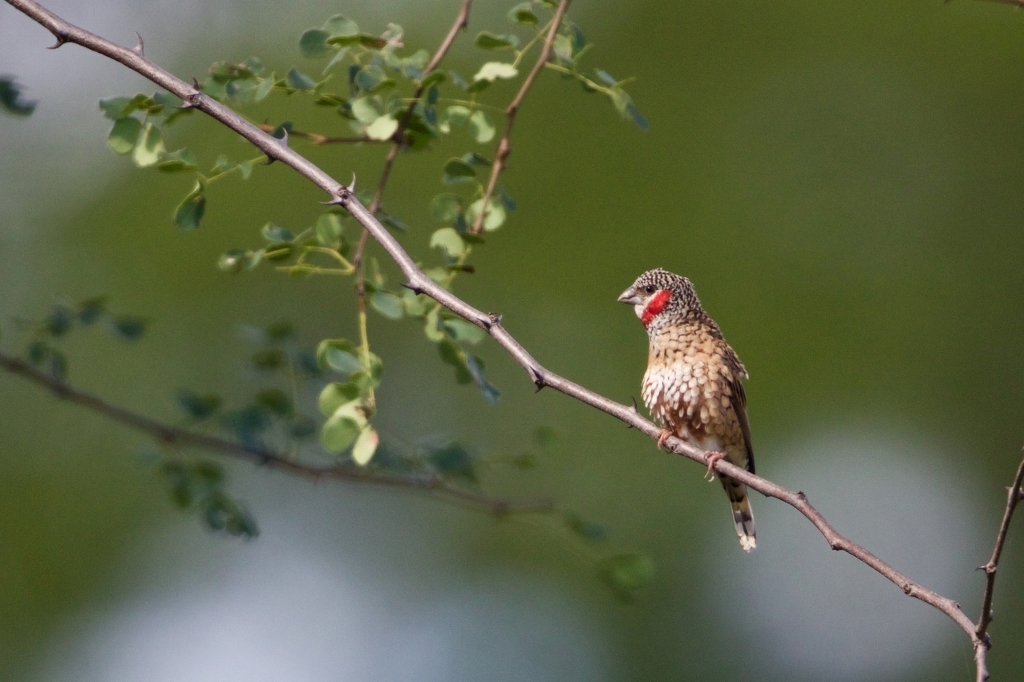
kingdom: Animalia
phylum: Chordata
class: Aves
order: Passeriformes
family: Estrildidae
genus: Amadina
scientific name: Amadina fasciata
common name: Cut-throat finch
